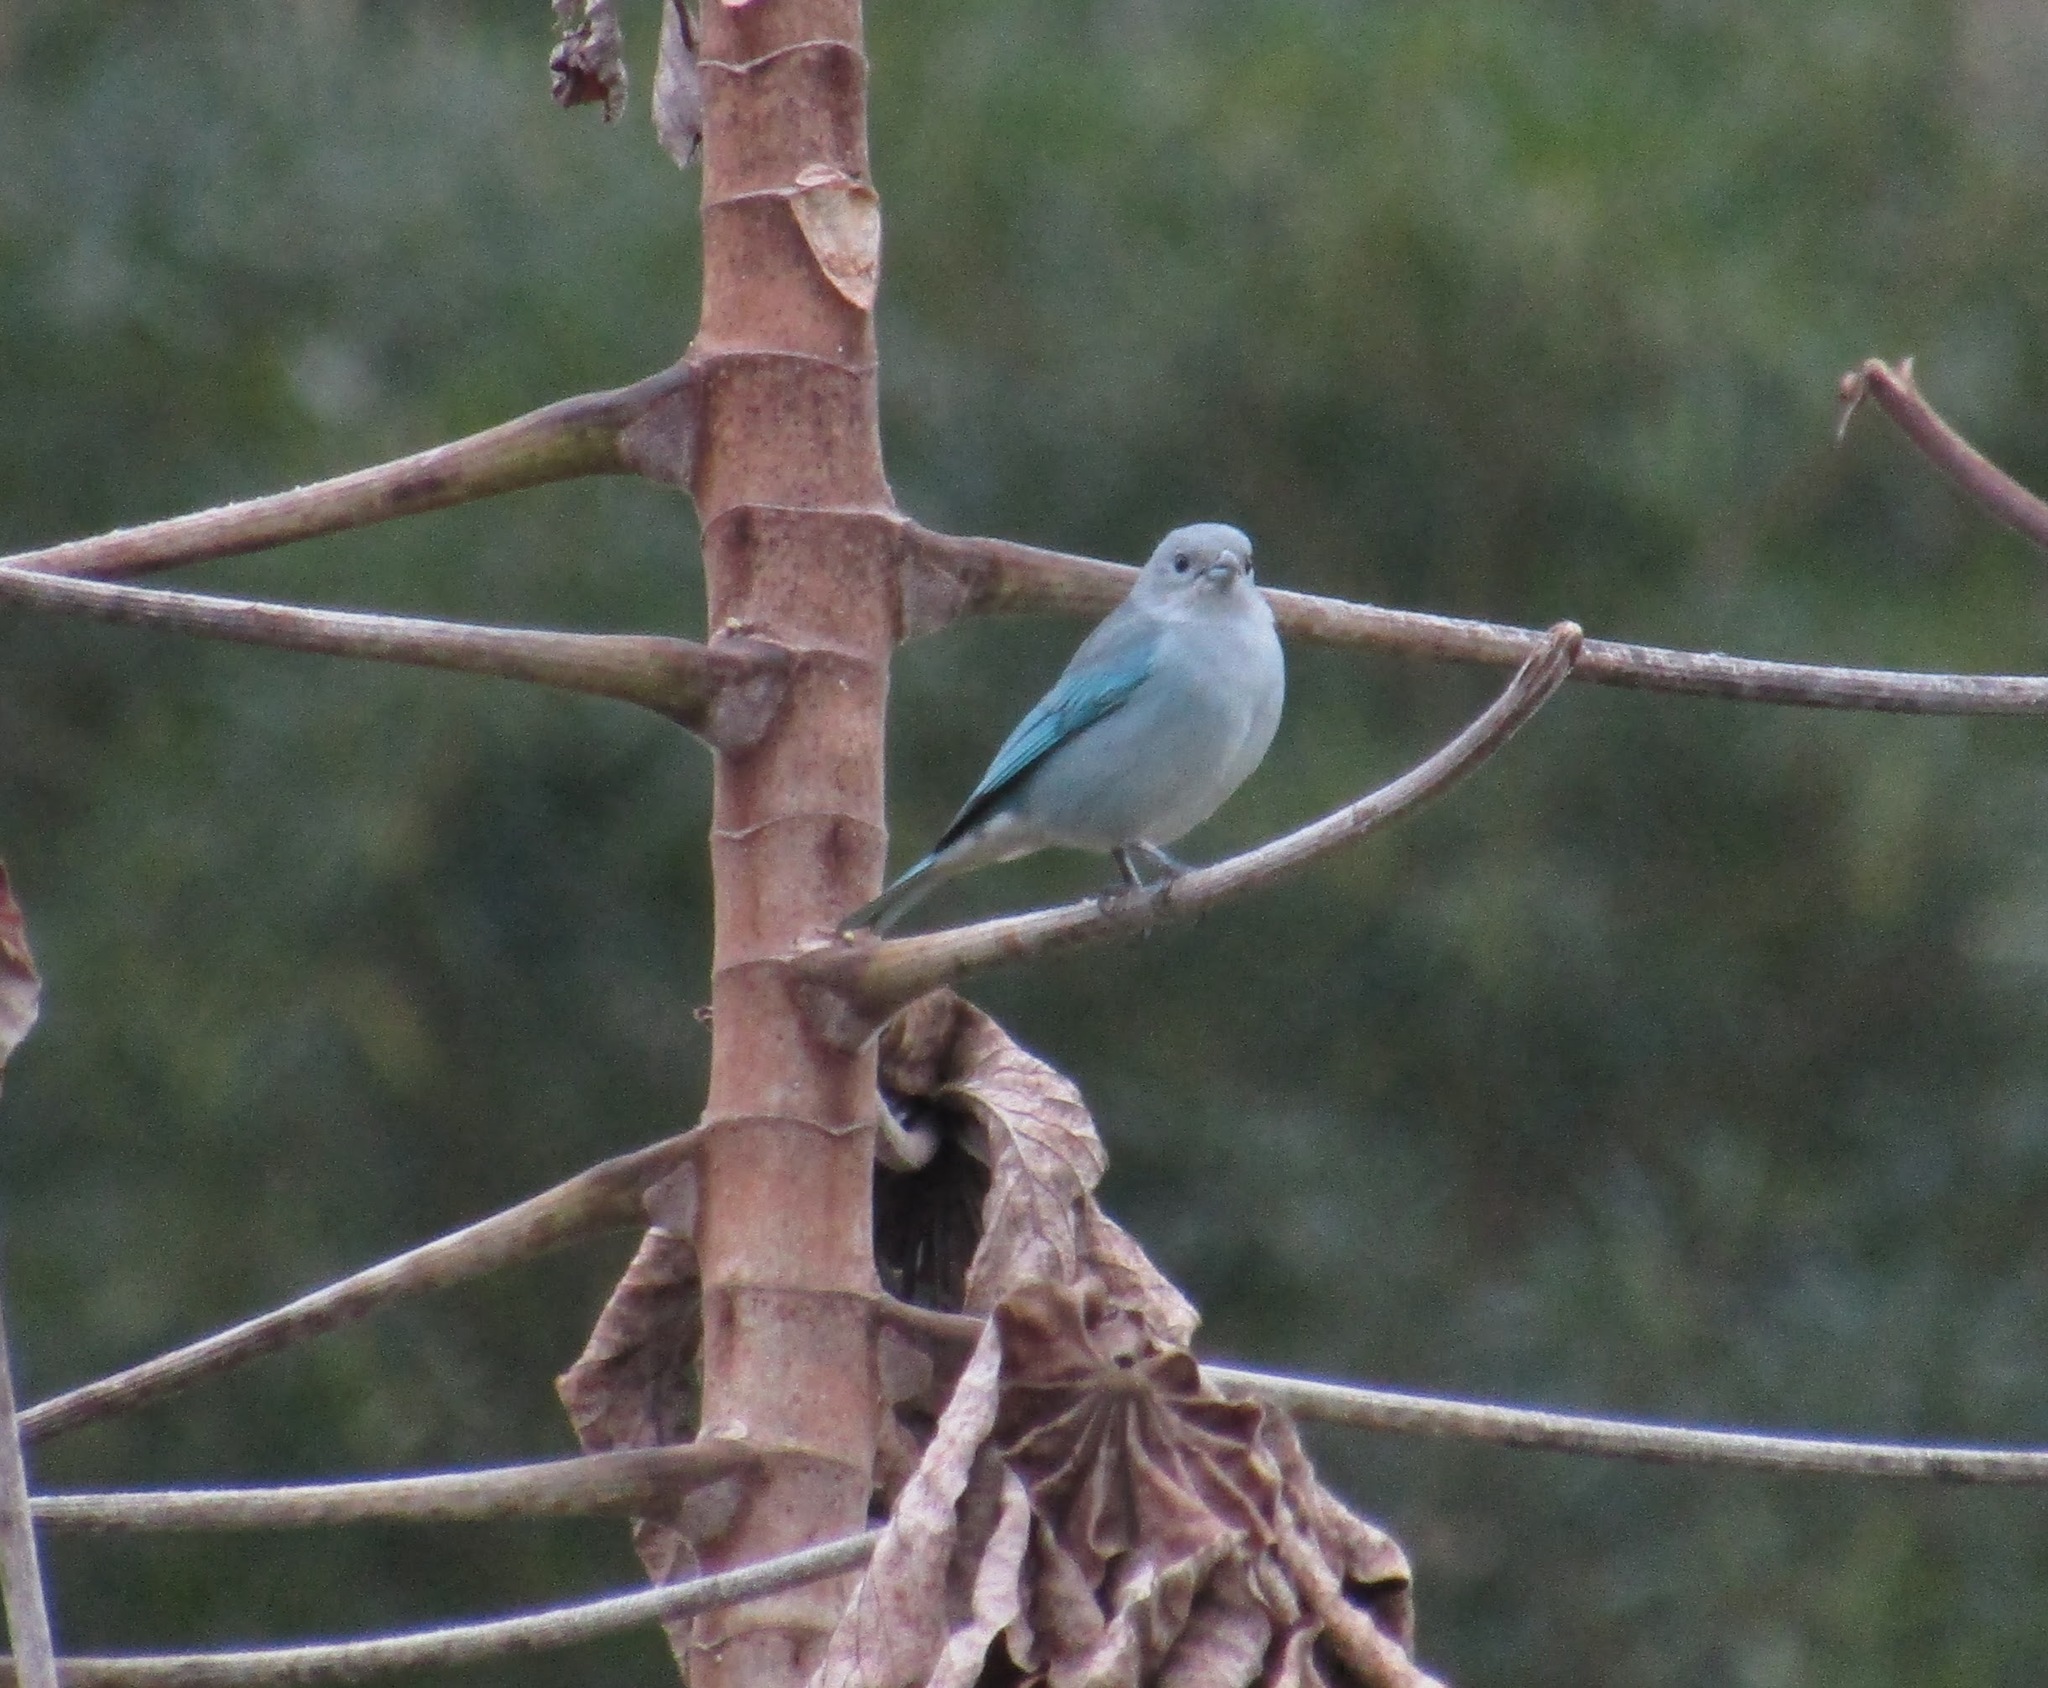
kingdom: Animalia
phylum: Chordata
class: Aves
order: Passeriformes
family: Thraupidae
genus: Thraupis
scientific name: Thraupis sayaca
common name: Sayaca tanager
